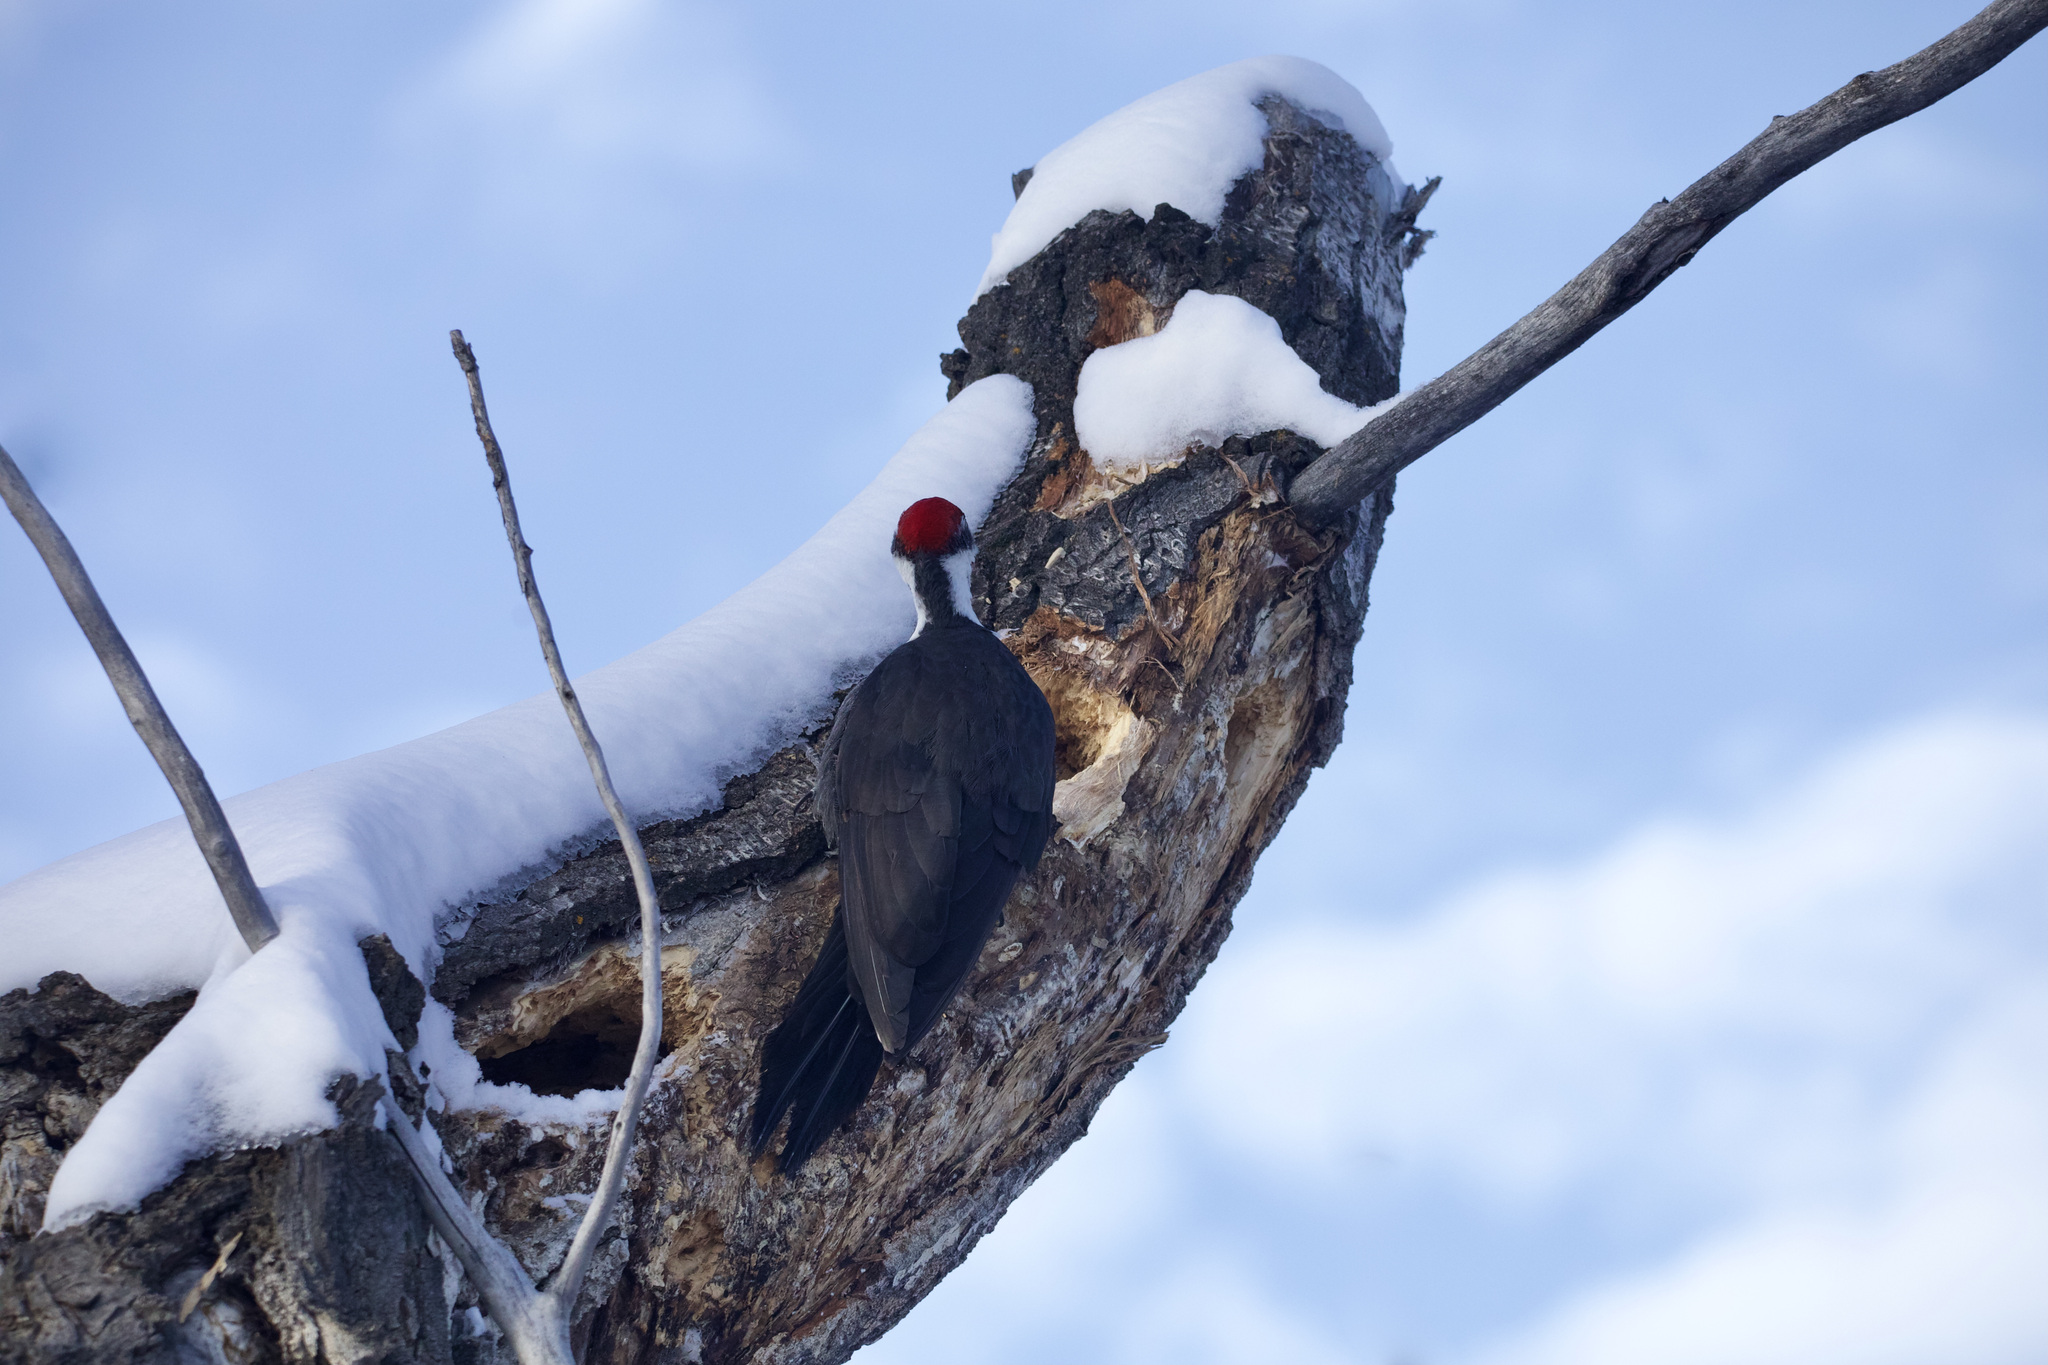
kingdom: Animalia
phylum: Chordata
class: Aves
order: Piciformes
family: Picidae
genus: Dryocopus
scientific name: Dryocopus pileatus
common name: Pileated woodpecker
